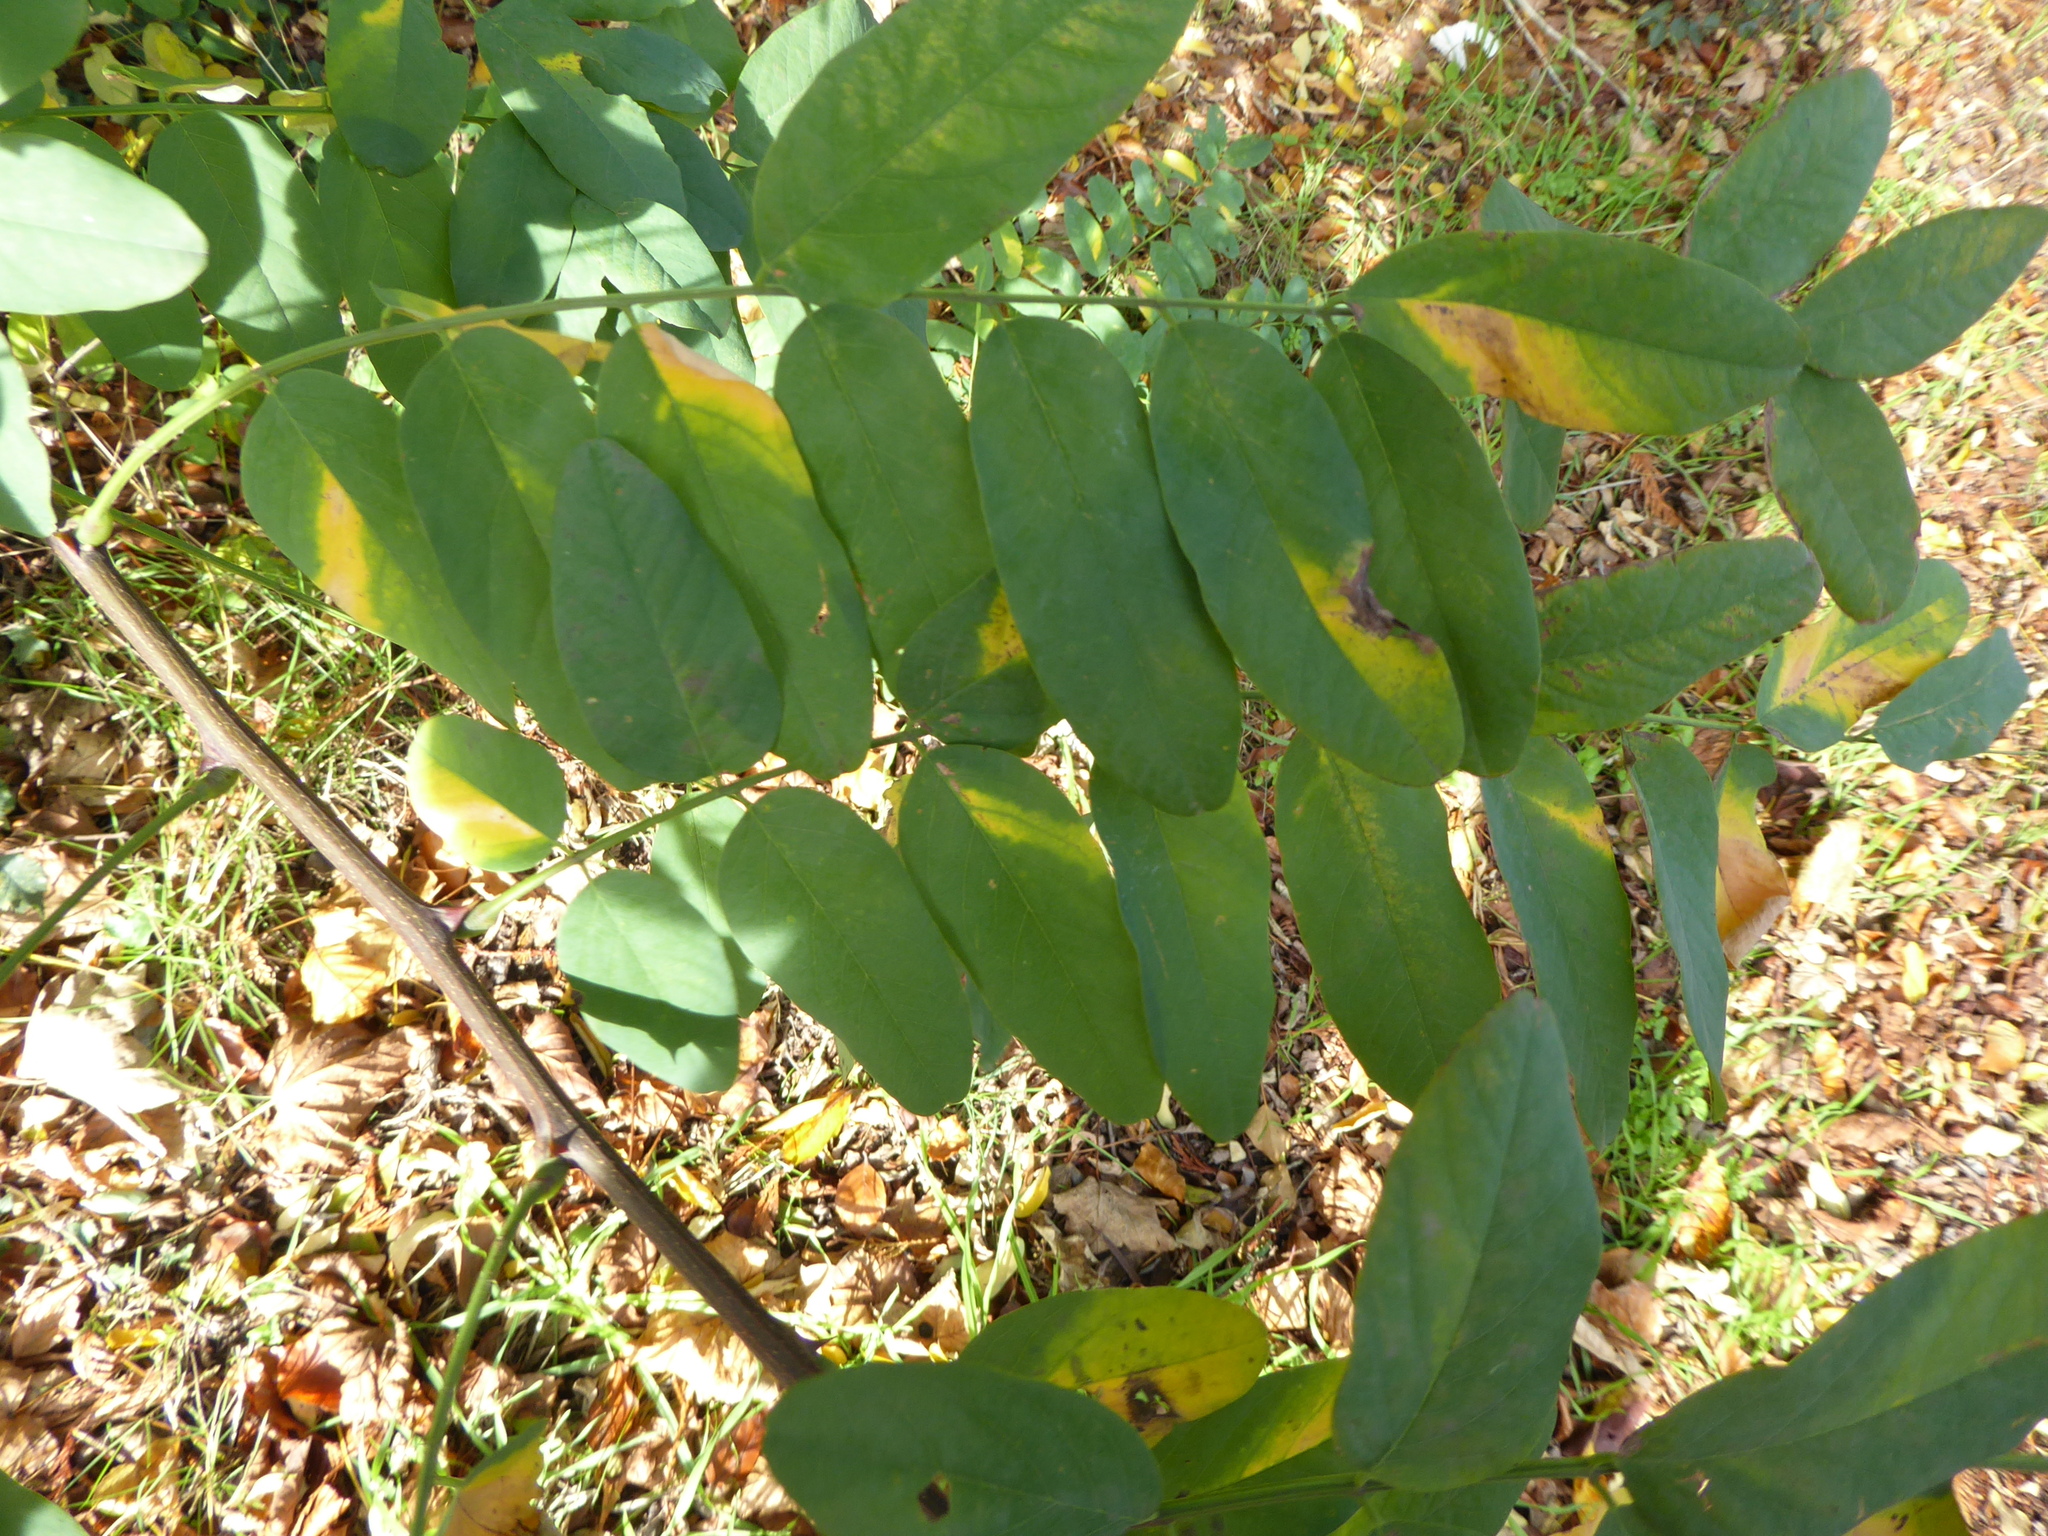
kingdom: Plantae
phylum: Tracheophyta
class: Magnoliopsida
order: Fabales
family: Fabaceae
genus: Robinia
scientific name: Robinia pseudoacacia
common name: Black locust
